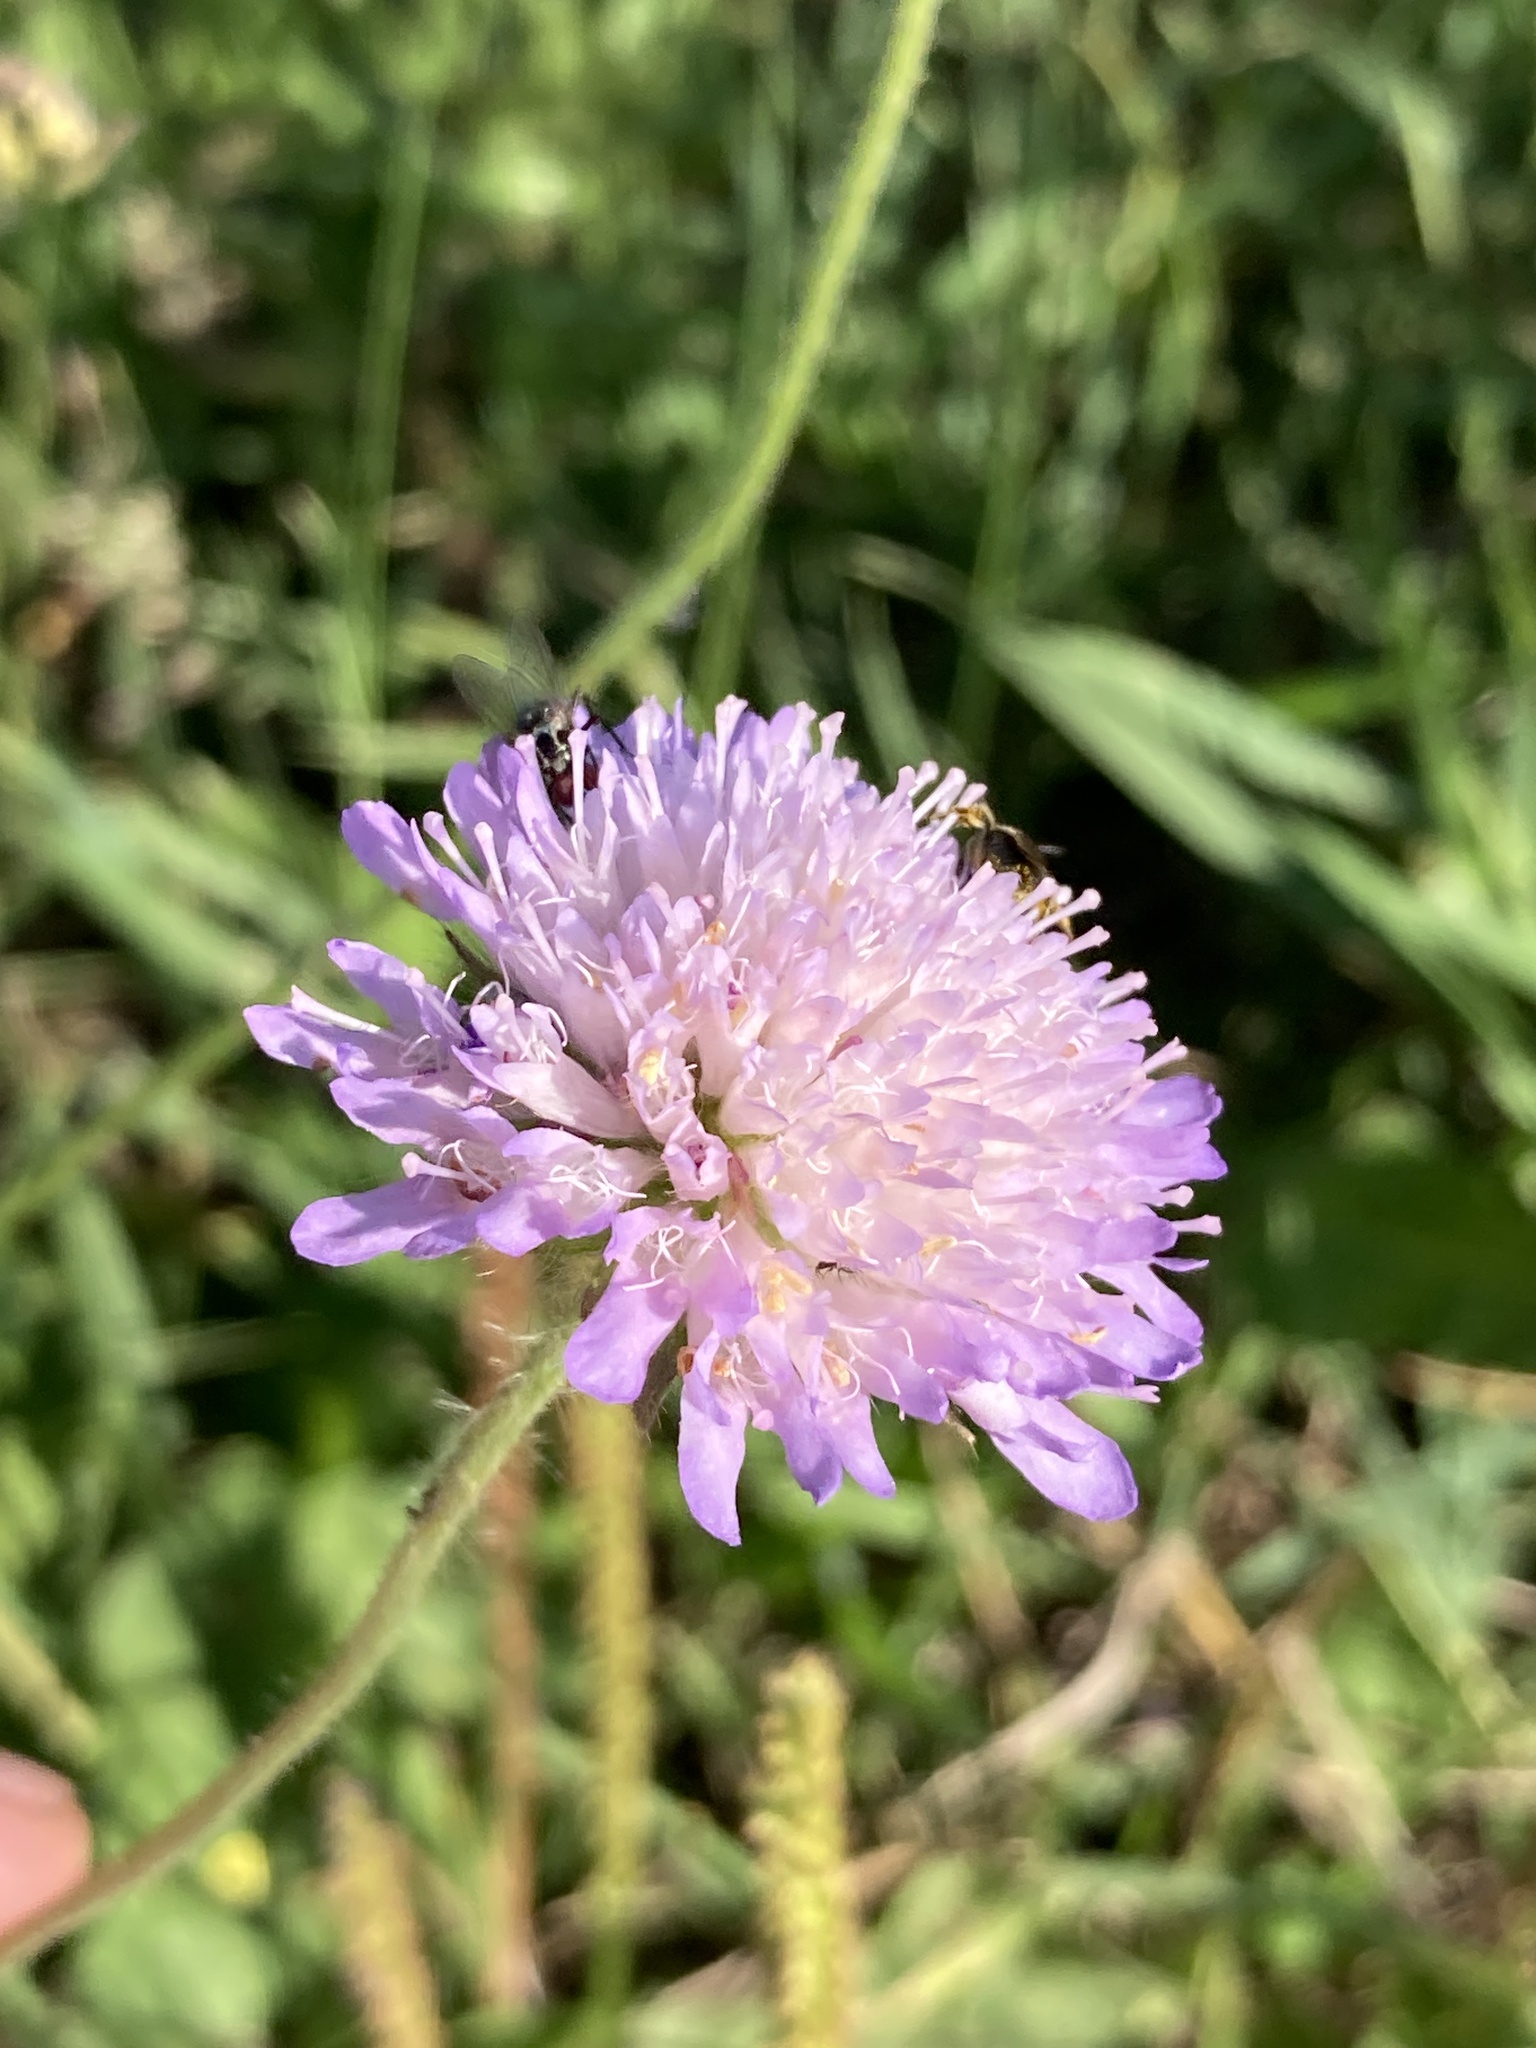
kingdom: Plantae
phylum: Tracheophyta
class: Magnoliopsida
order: Dipsacales
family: Caprifoliaceae
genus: Knautia
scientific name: Knautia arvensis
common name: Field scabiosa
